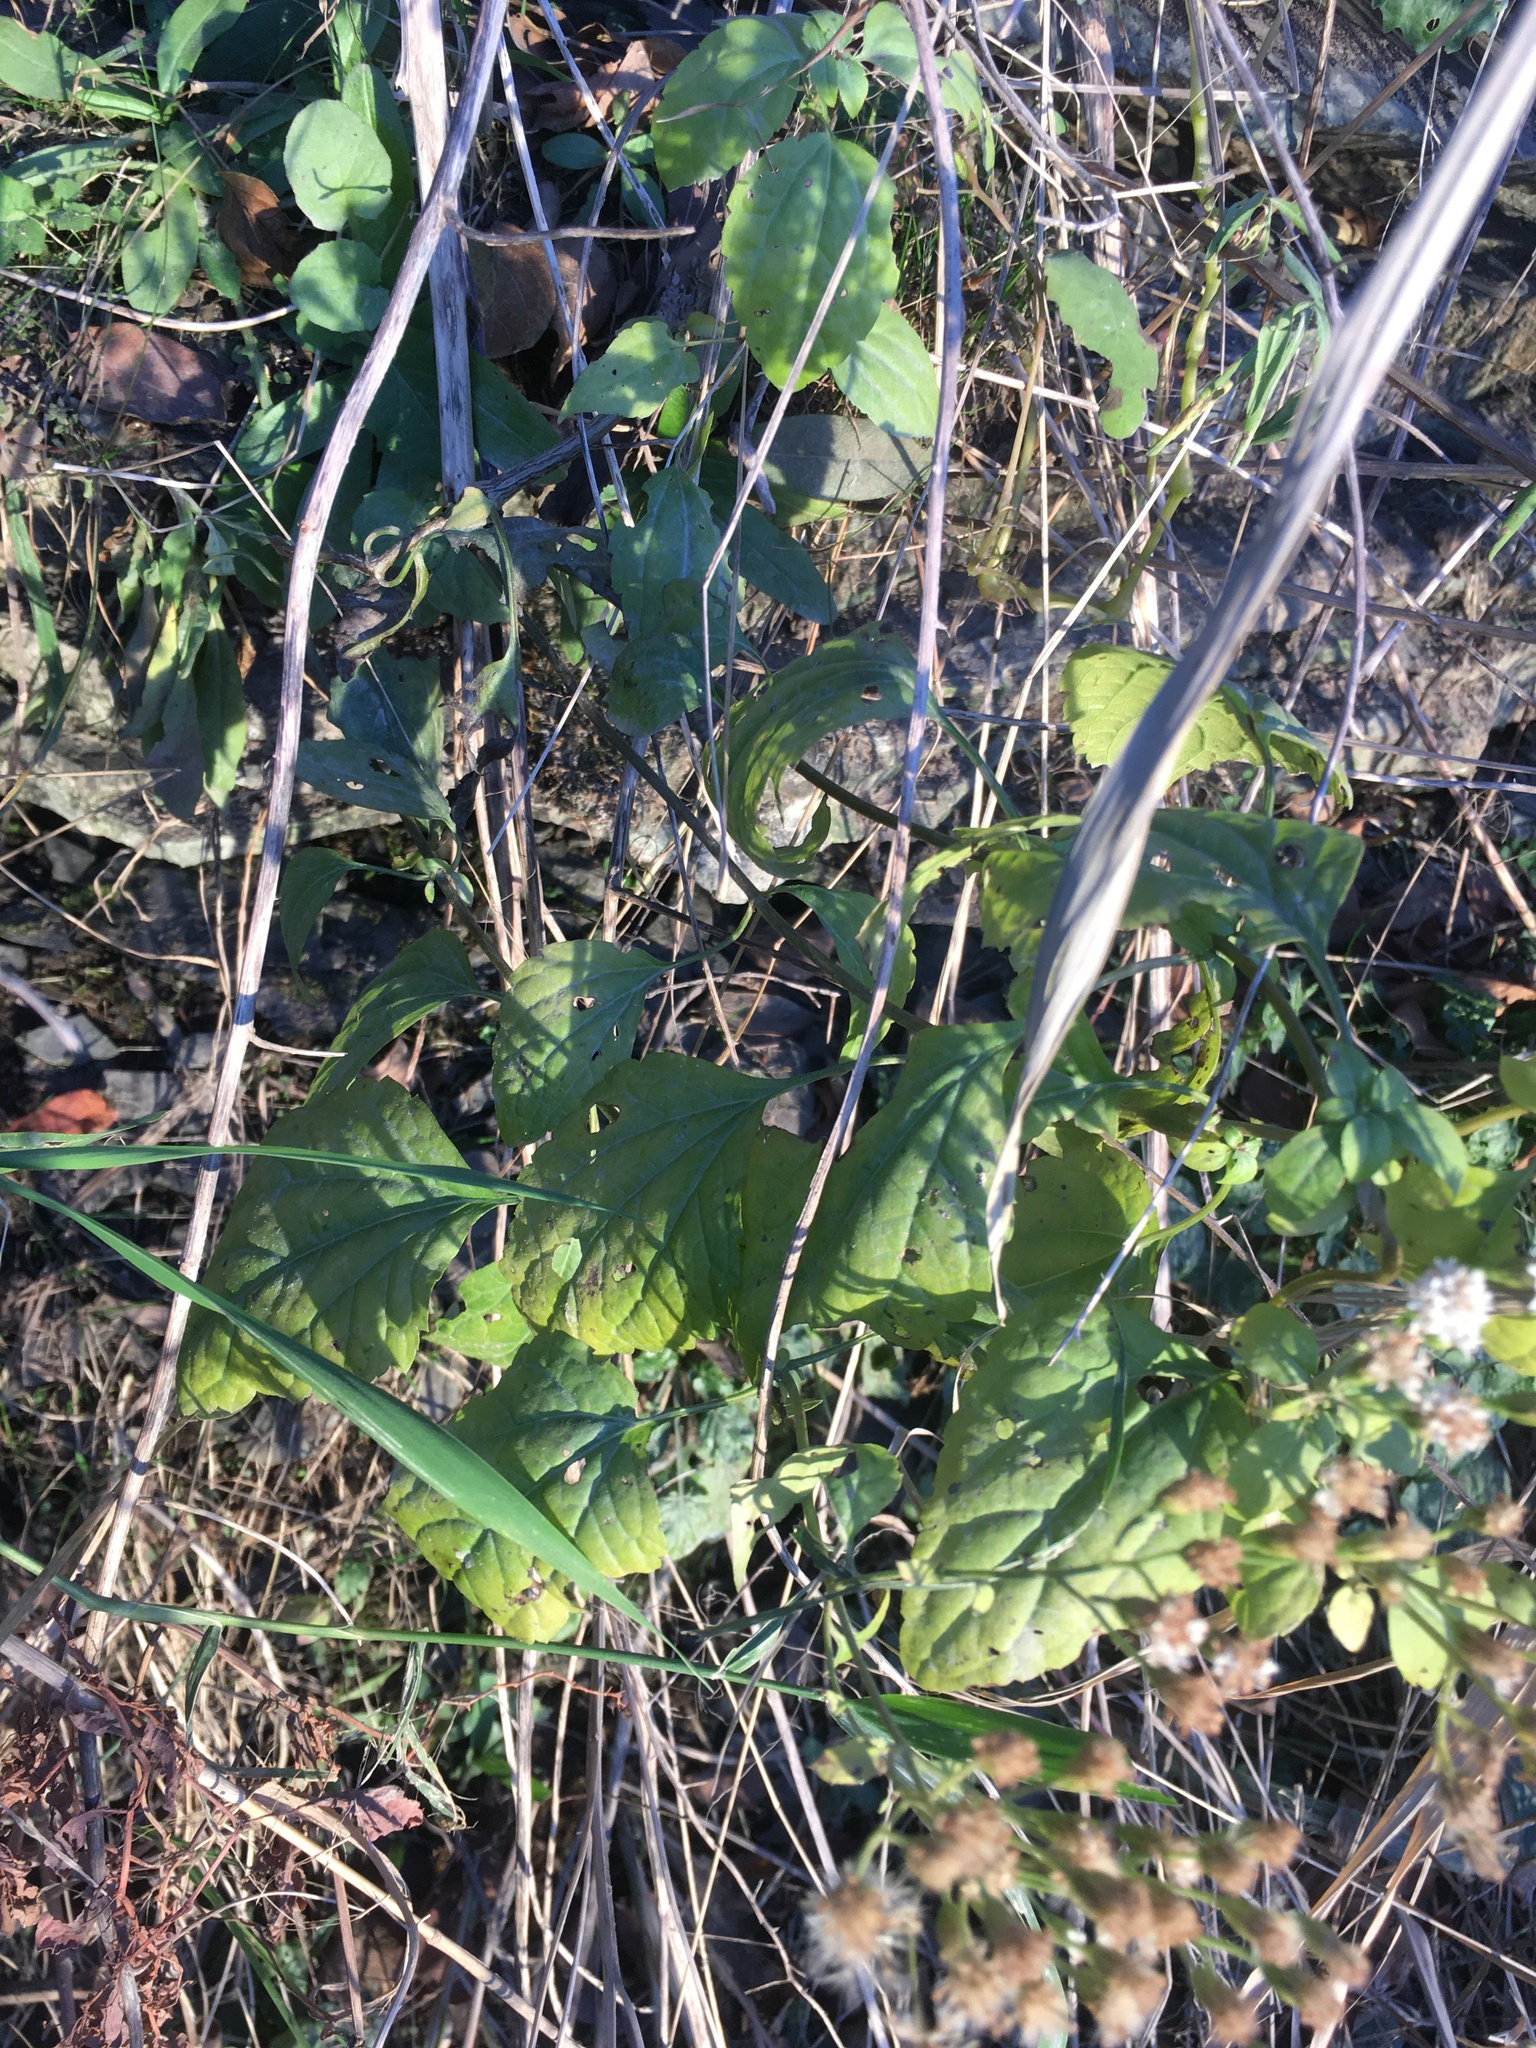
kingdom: Plantae
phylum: Tracheophyta
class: Magnoliopsida
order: Asterales
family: Asteraceae
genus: Ageratina
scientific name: Ageratina altissima
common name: White snakeroot
